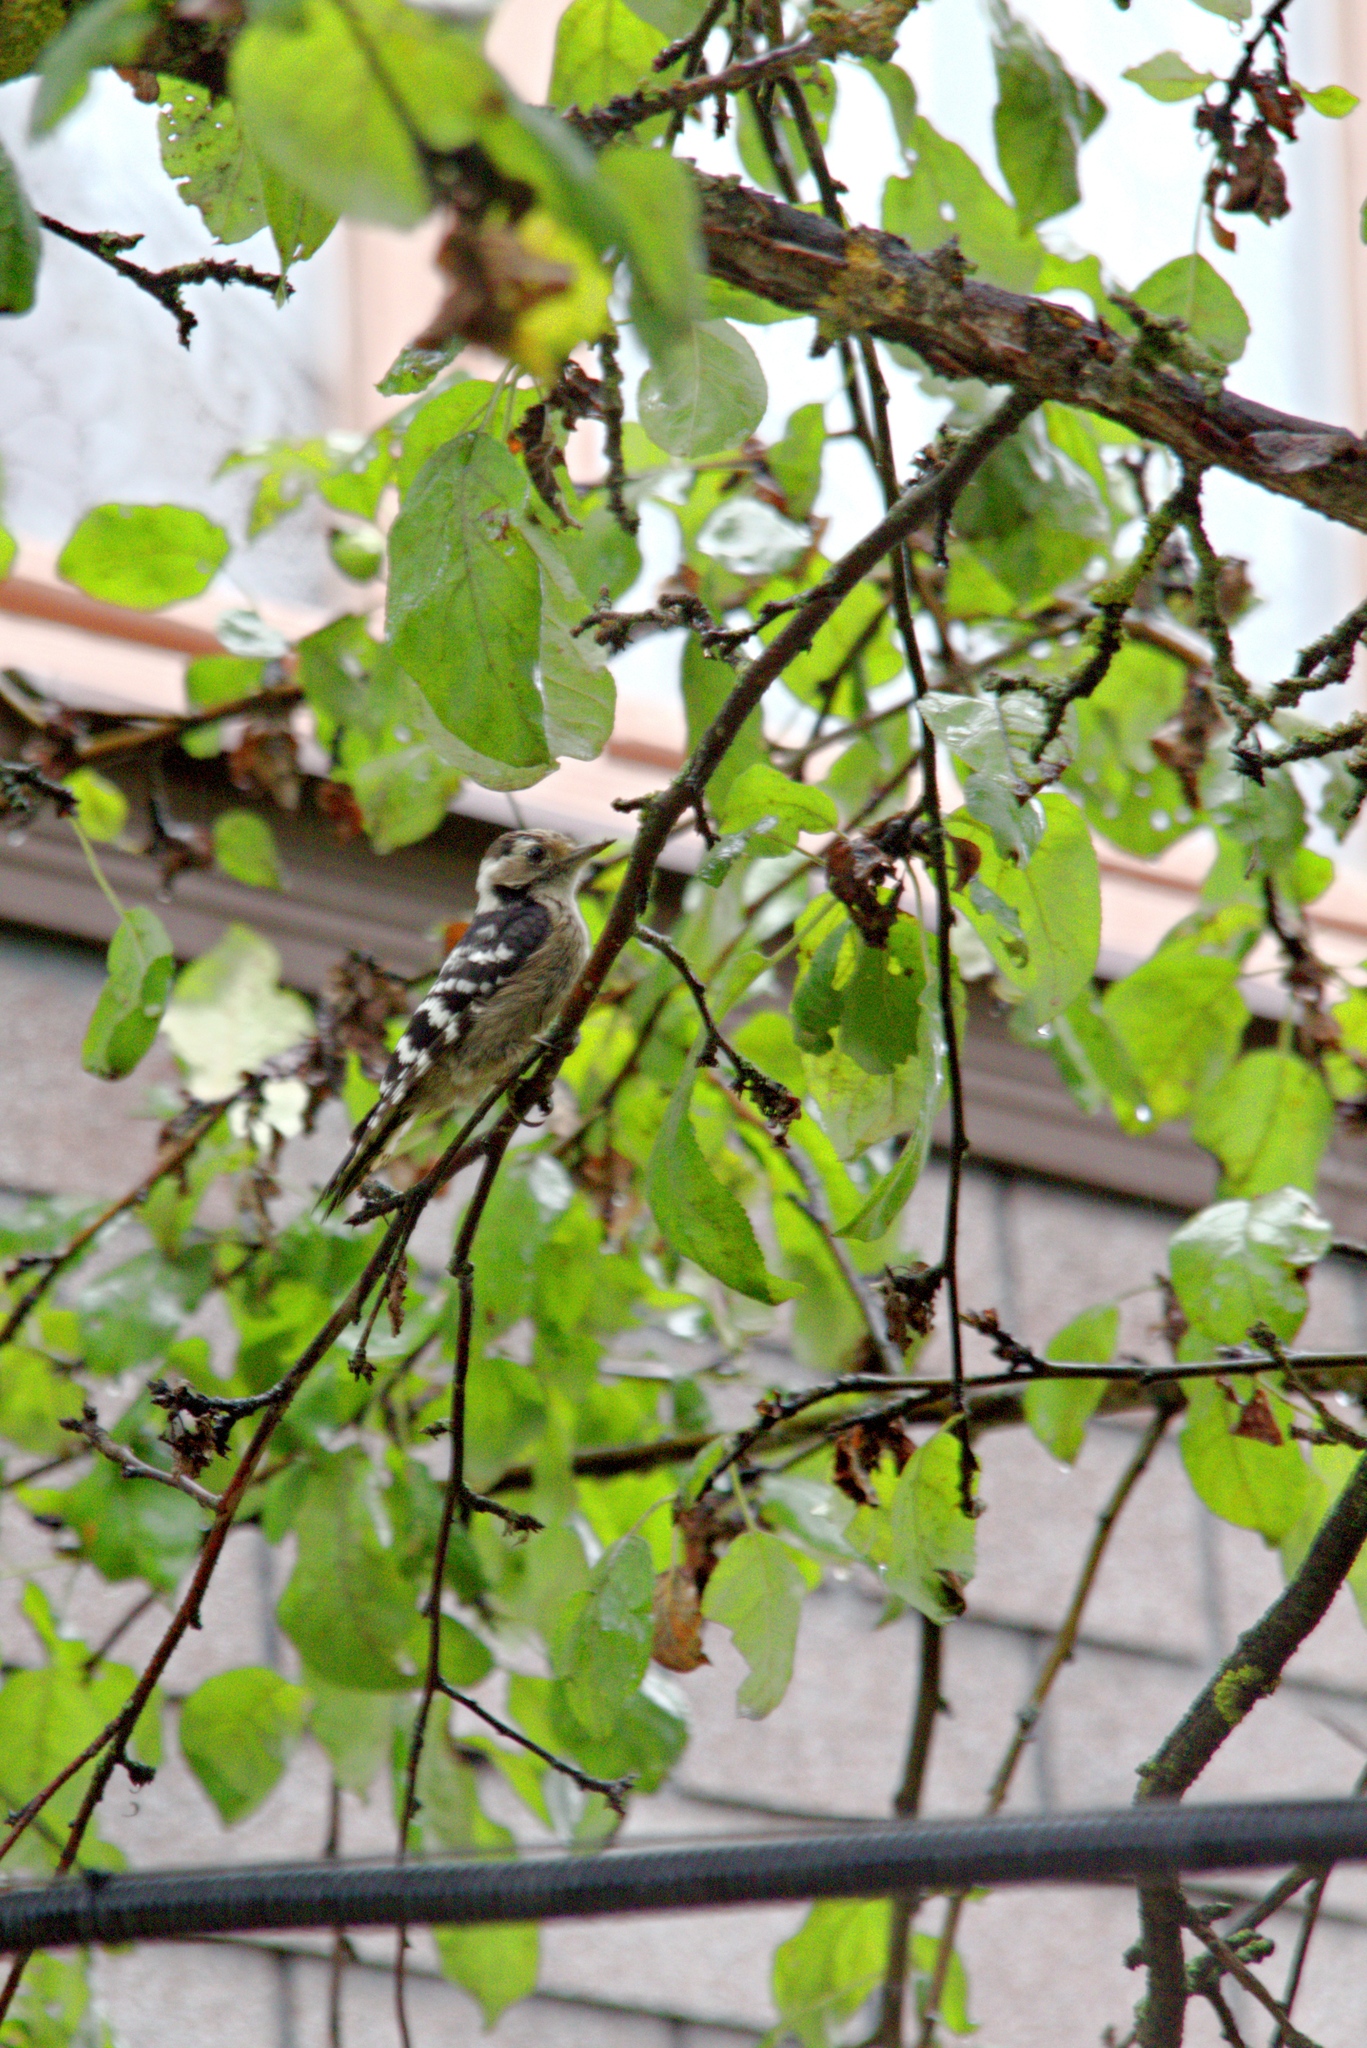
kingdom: Animalia
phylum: Chordata
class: Aves
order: Piciformes
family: Picidae
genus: Dryobates
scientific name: Dryobates minor
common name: Lesser spotted woodpecker
